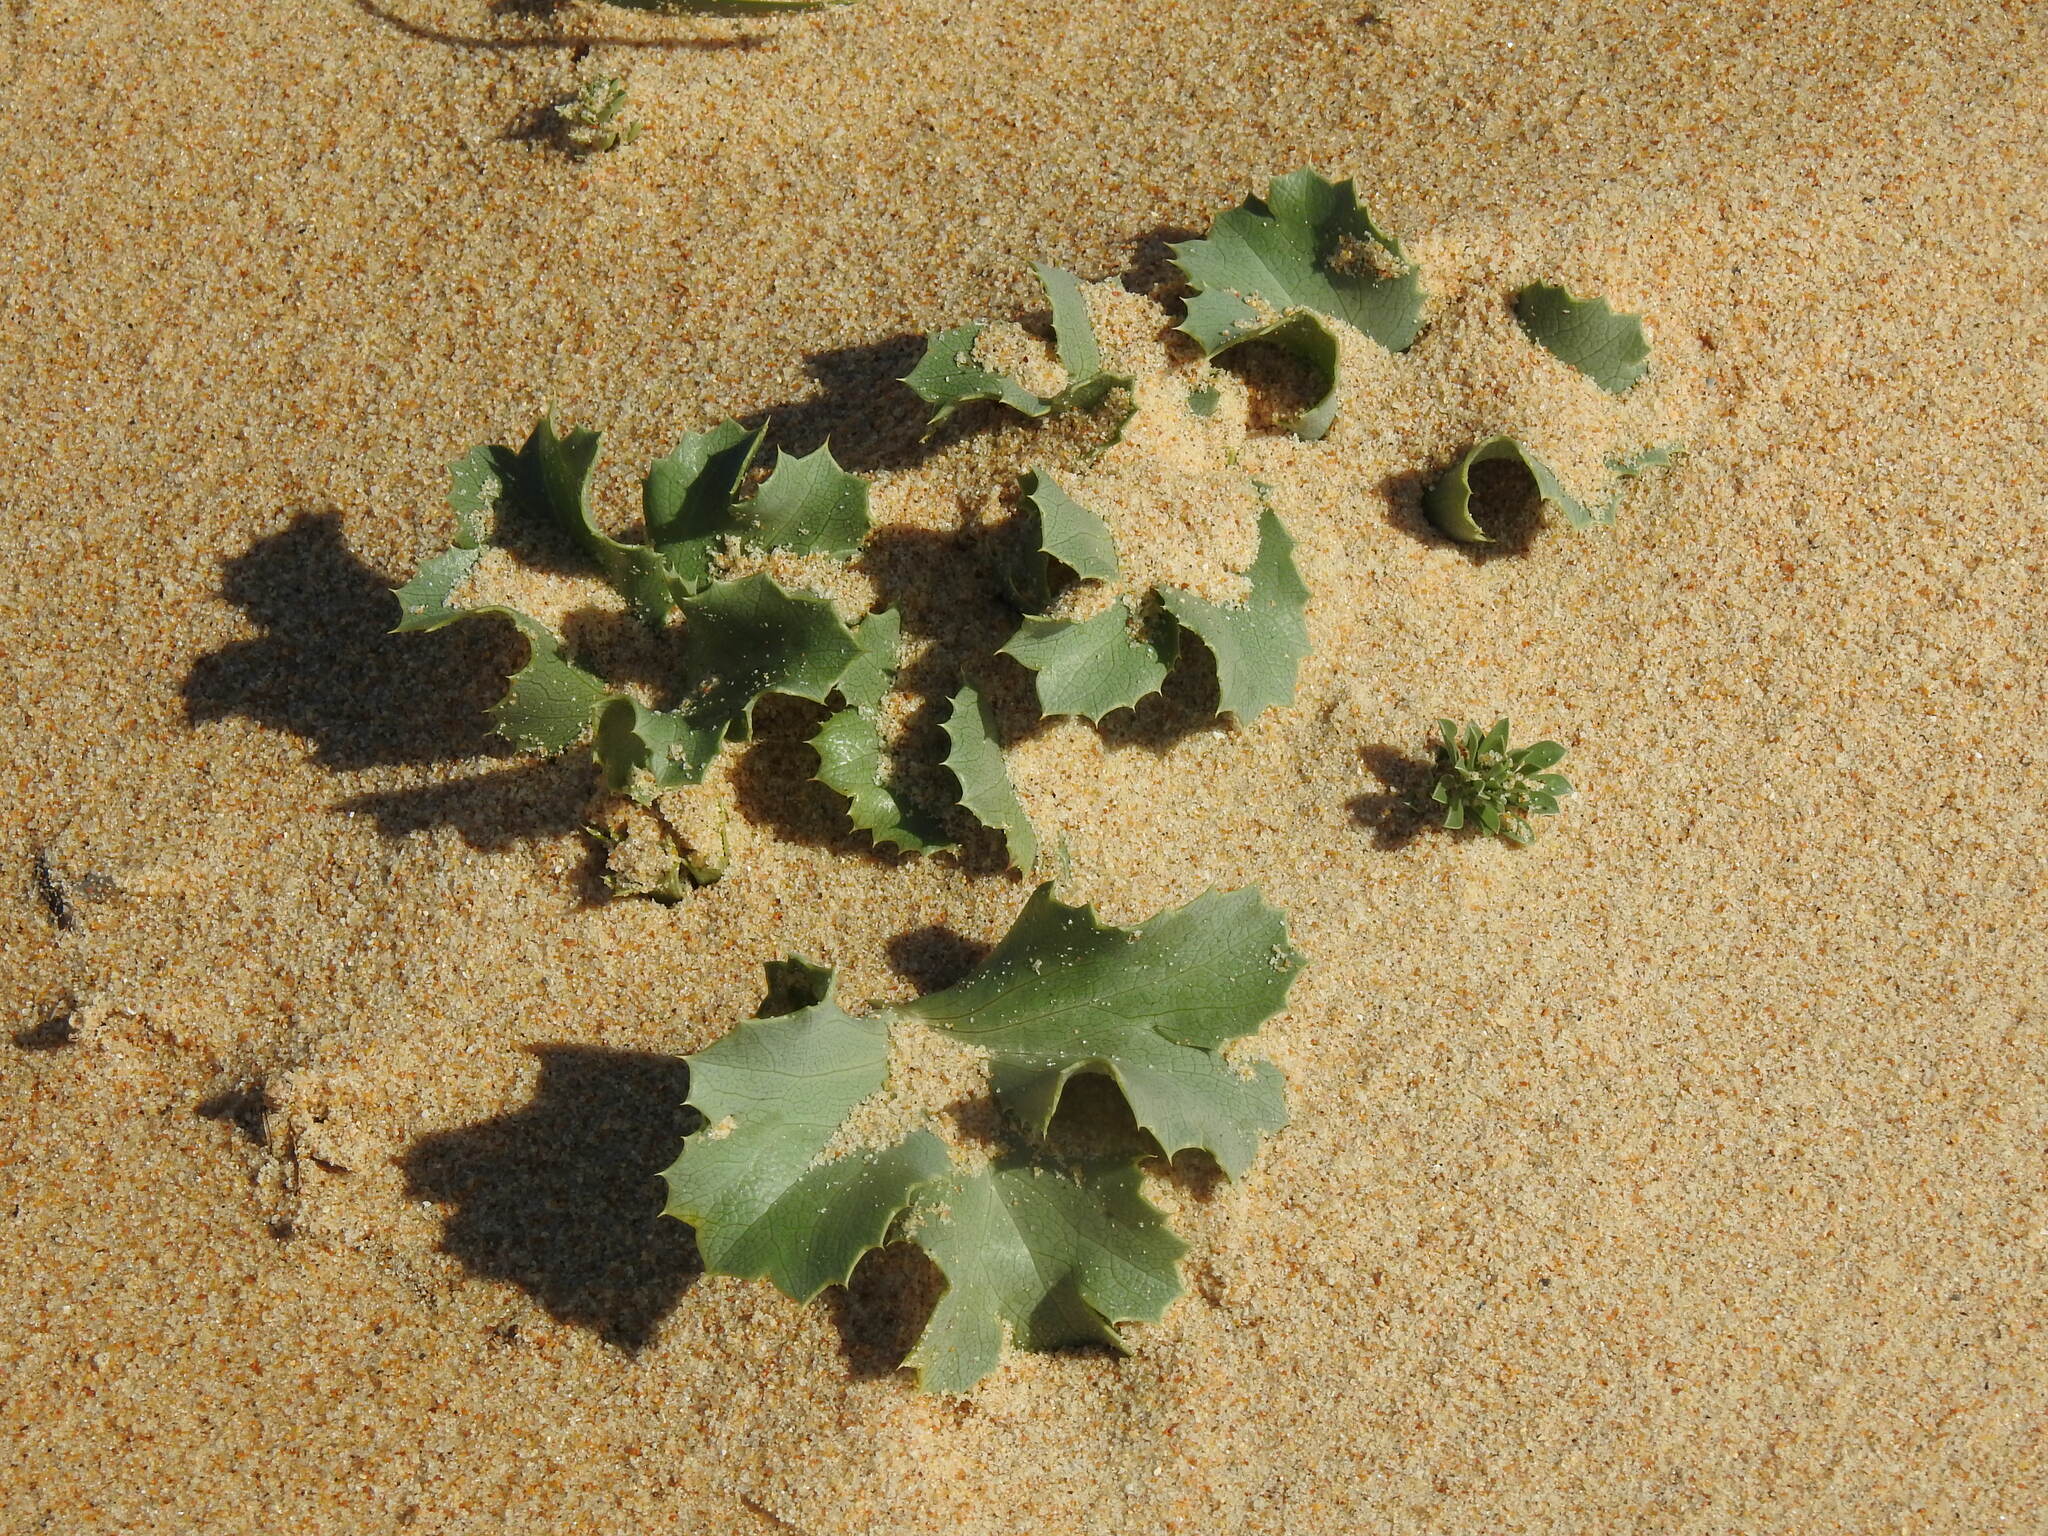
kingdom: Plantae
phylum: Tracheophyta
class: Magnoliopsida
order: Apiales
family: Apiaceae
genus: Eryngium
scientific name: Eryngium maritimum
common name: Sea-holly
